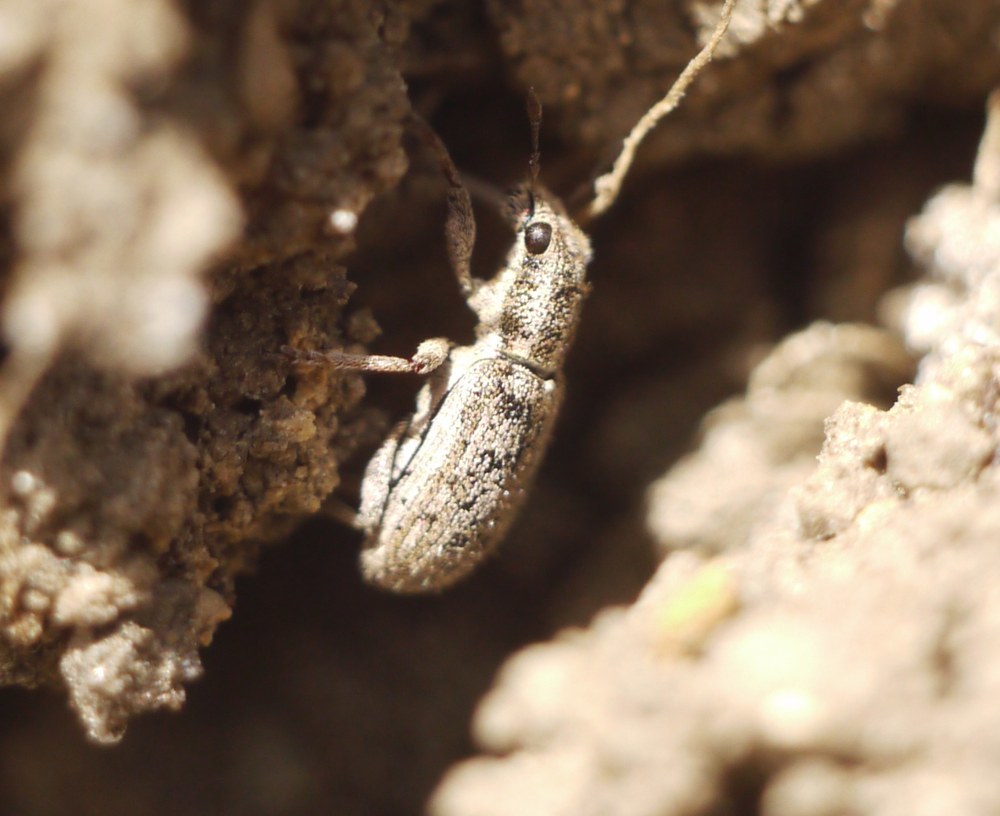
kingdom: Animalia
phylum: Arthropoda
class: Insecta
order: Coleoptera
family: Curculionidae
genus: Sitona
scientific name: Sitona macularius
